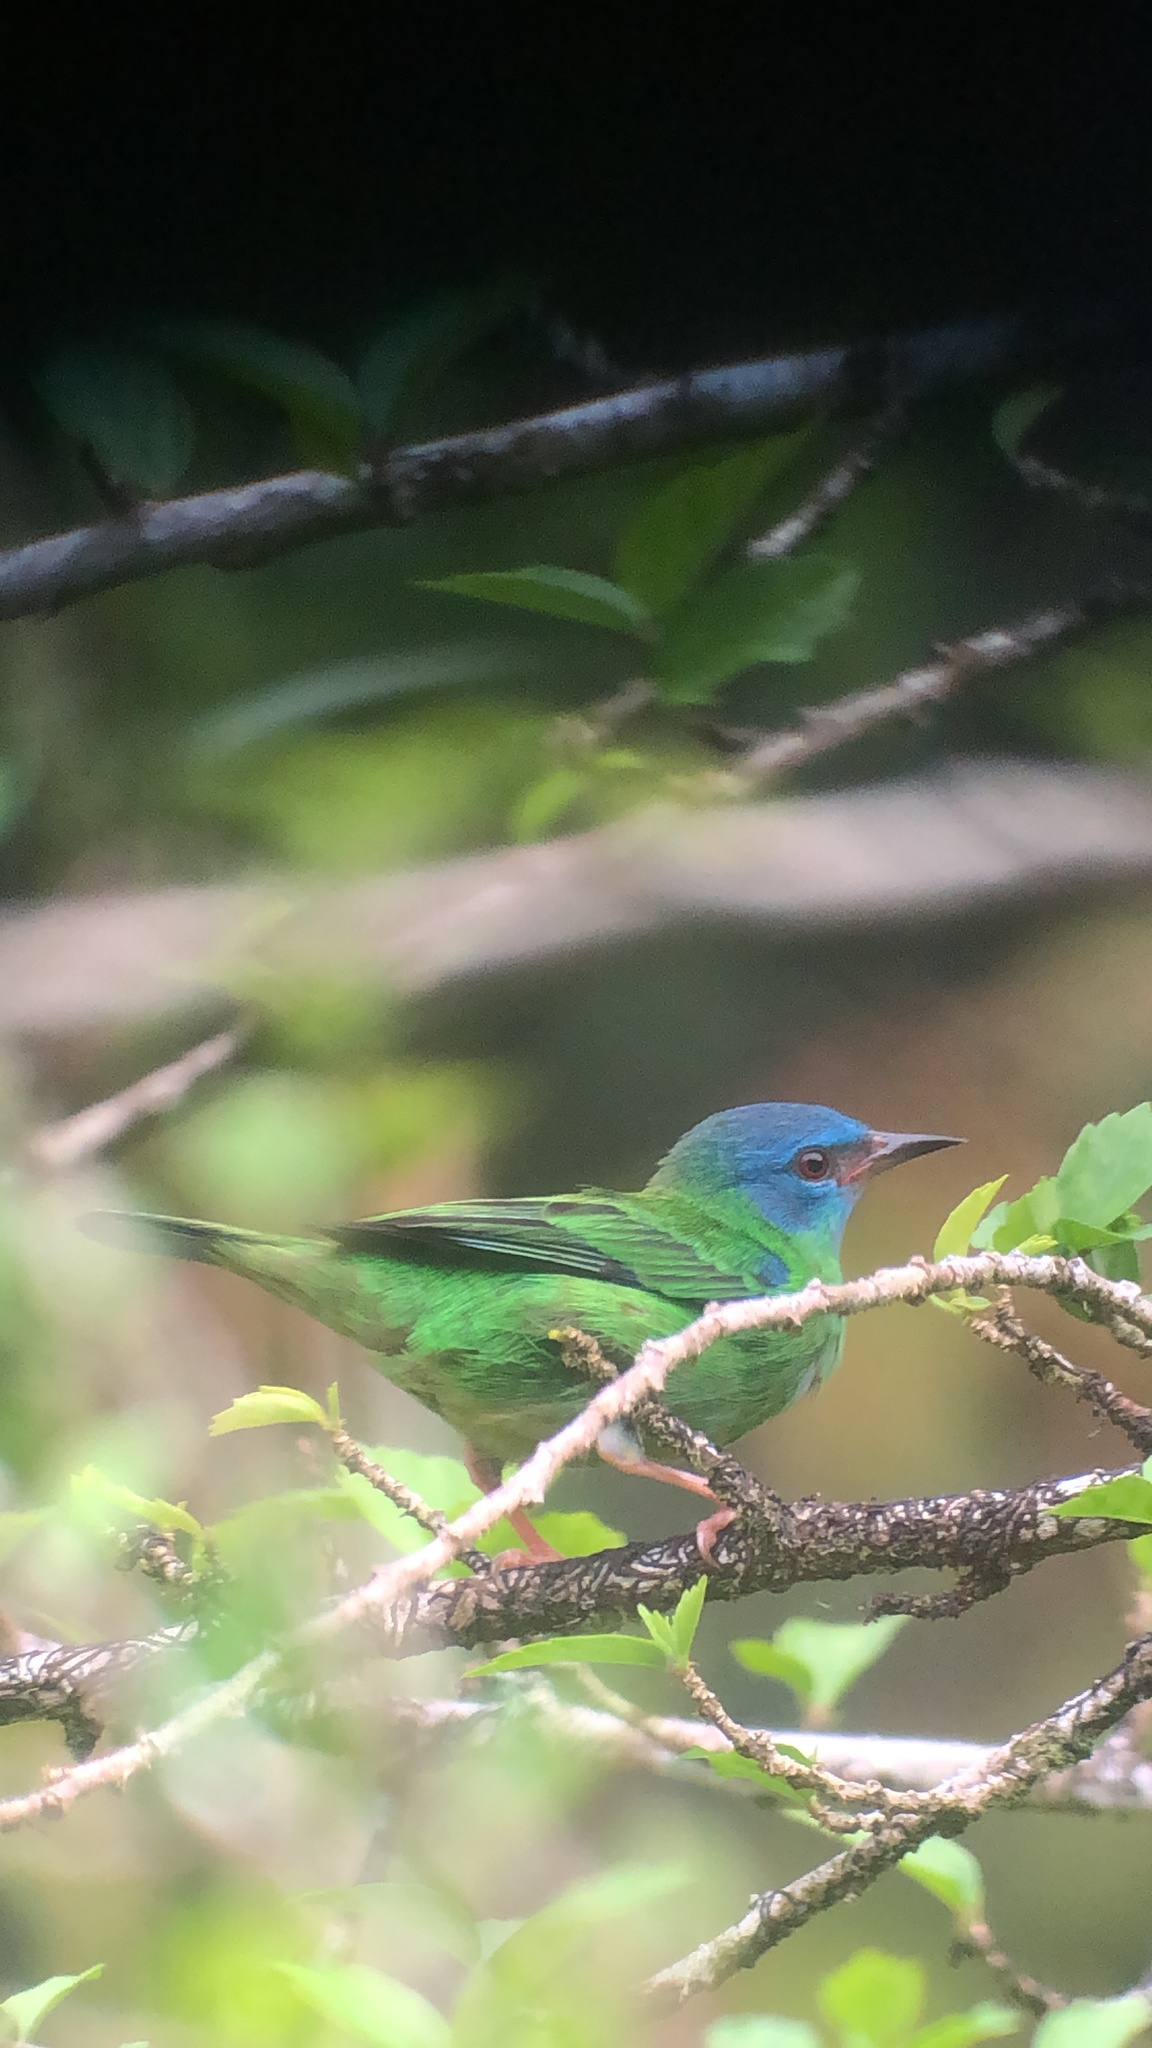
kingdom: Animalia
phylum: Chordata
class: Aves
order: Passeriformes
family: Thraupidae
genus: Dacnis
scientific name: Dacnis cayana
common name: Blue dacnis
